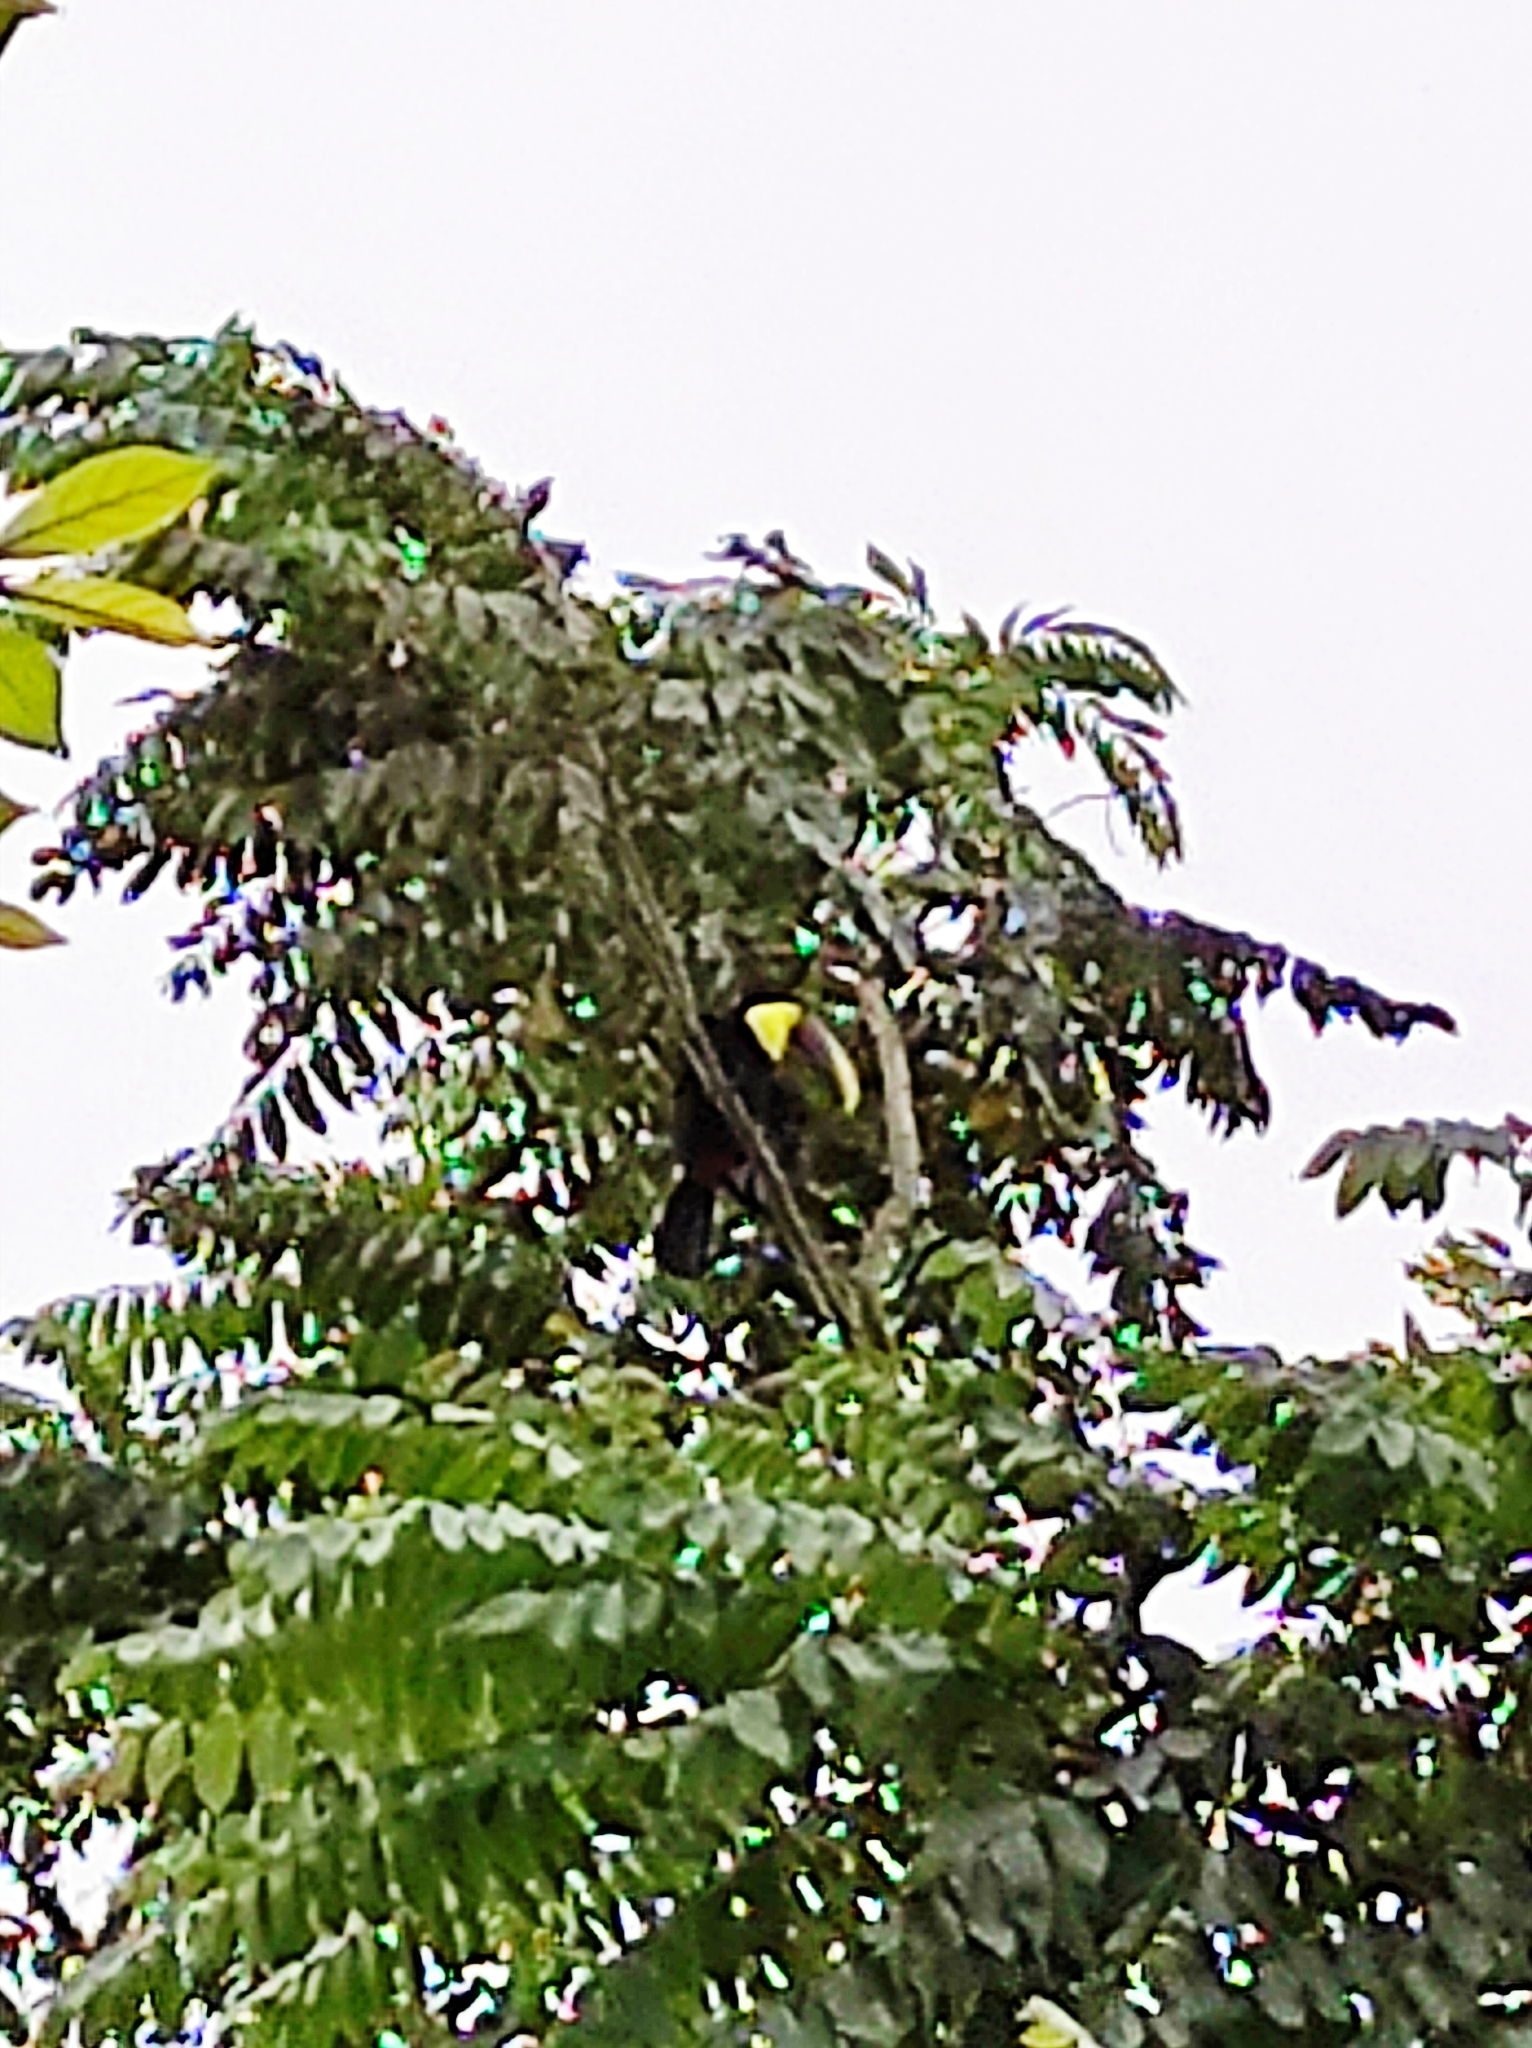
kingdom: Animalia
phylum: Chordata
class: Aves
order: Piciformes
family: Ramphastidae
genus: Ramphastos
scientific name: Ramphastos ambiguus
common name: Yellow-throated toucan
